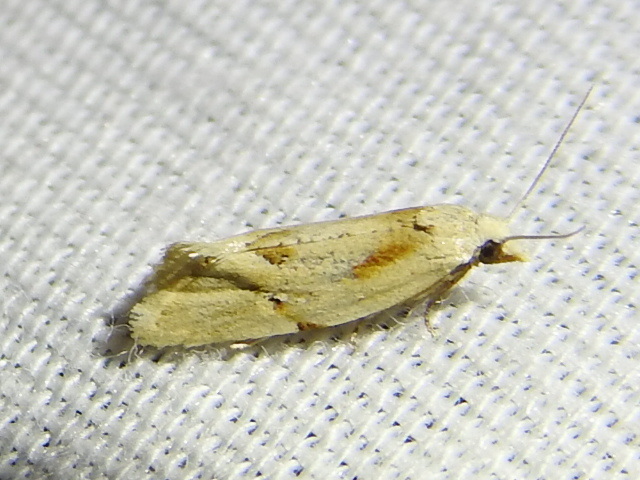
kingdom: Animalia
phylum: Arthropoda
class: Insecta
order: Lepidoptera
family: Tortricidae
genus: Aethes
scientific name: Aethes seriatana
